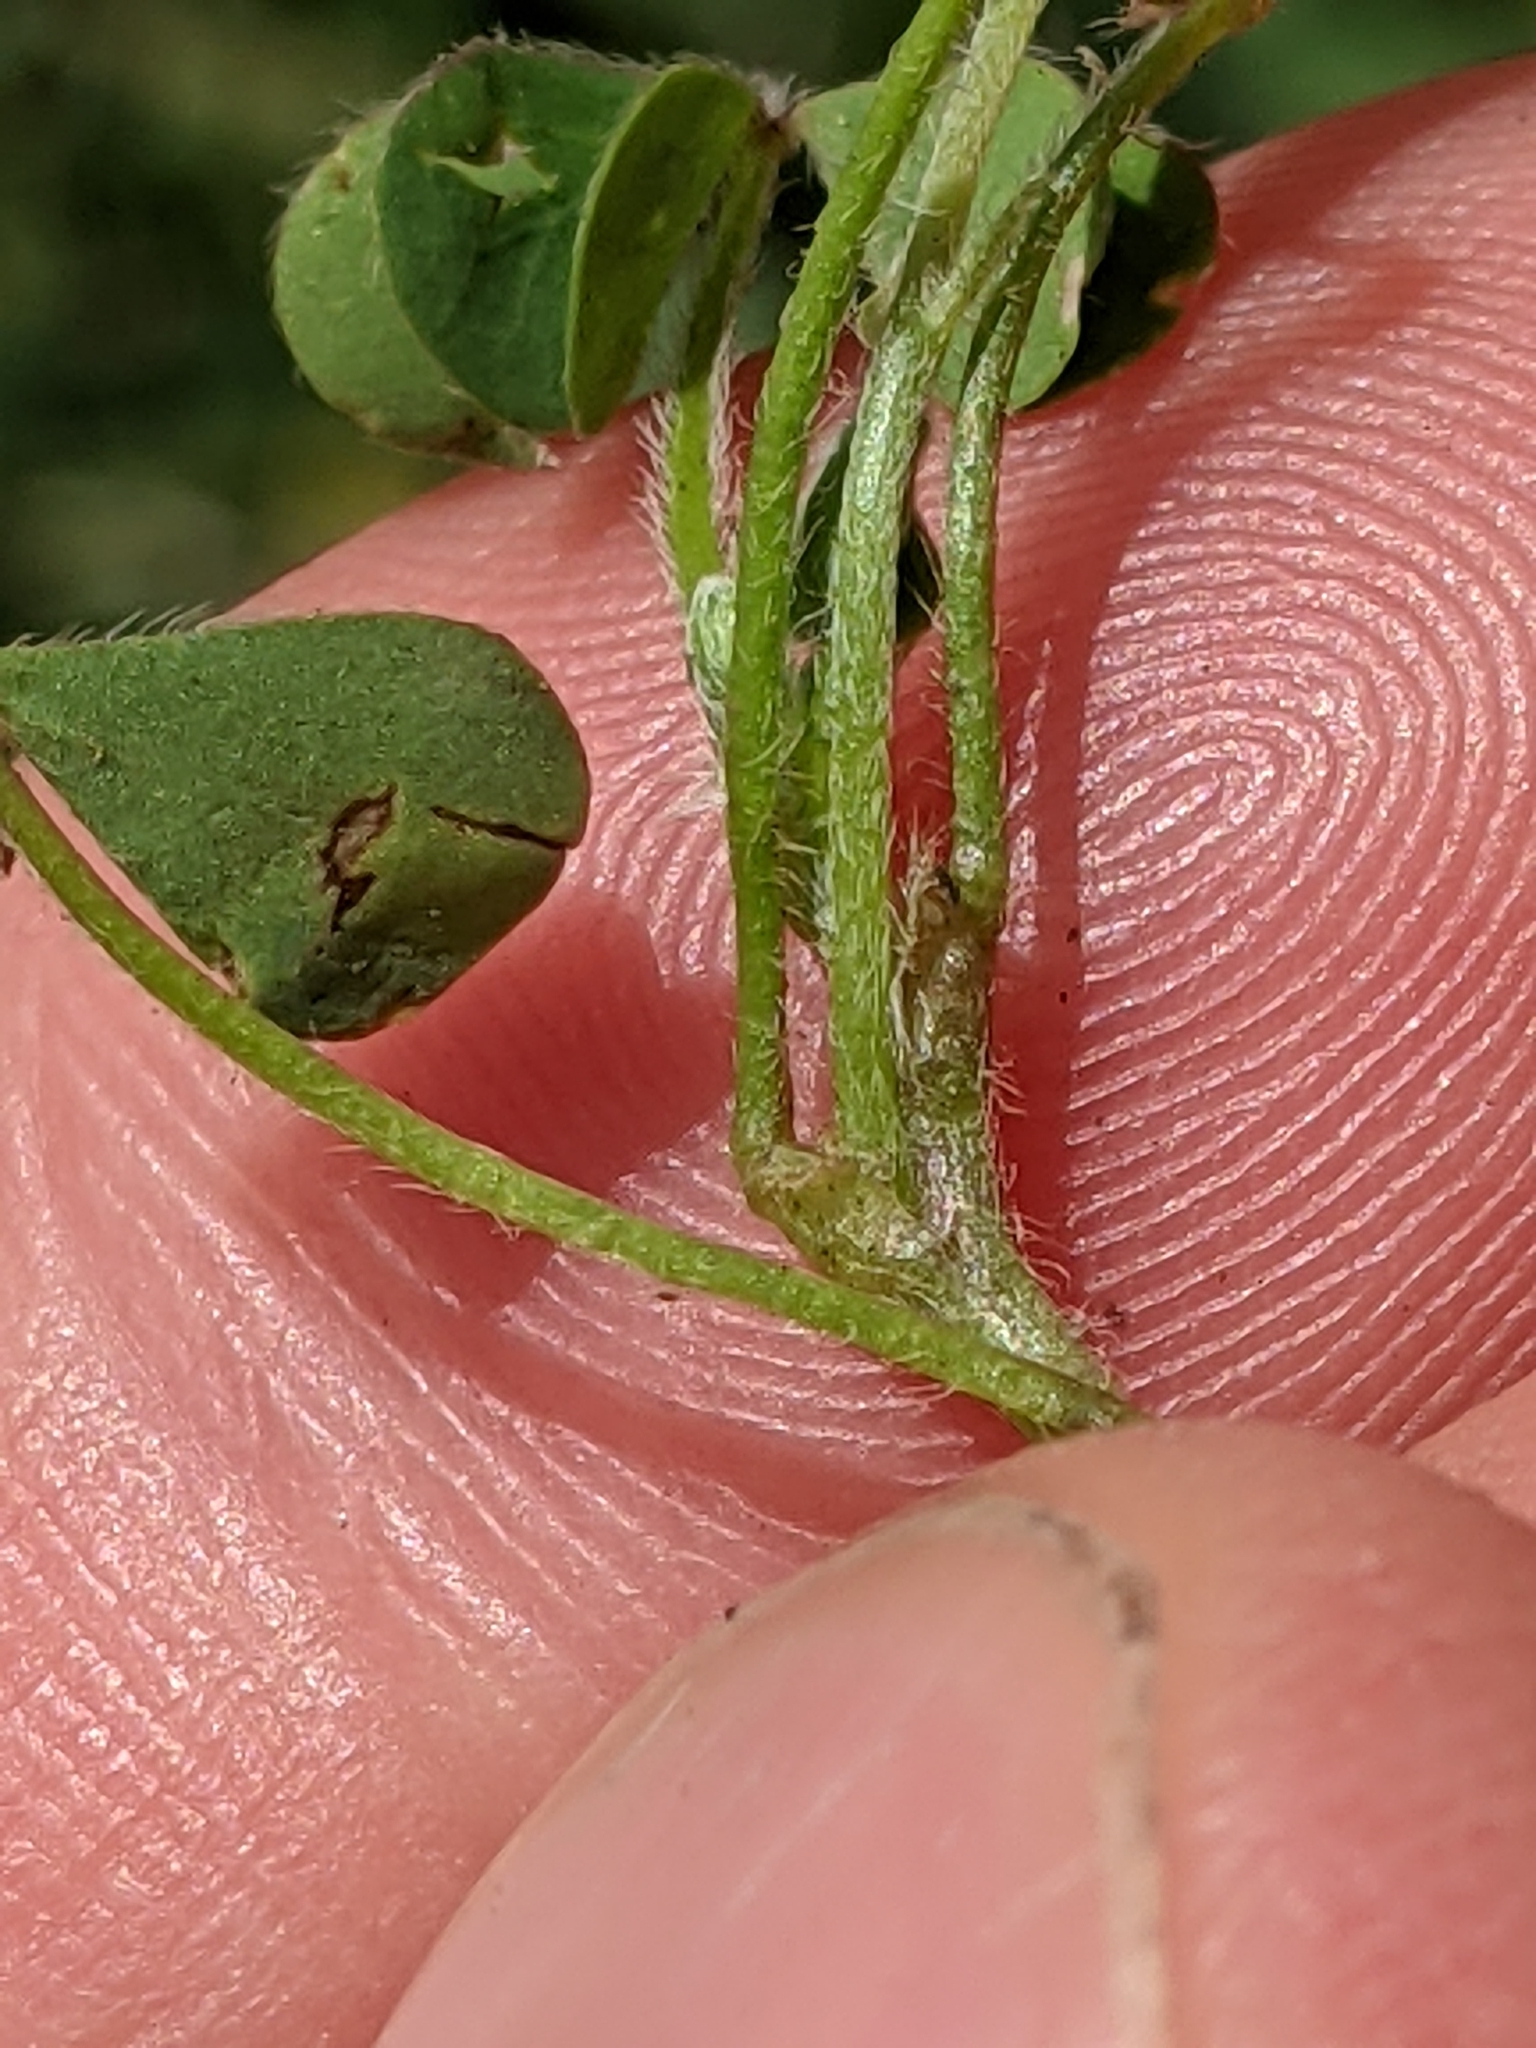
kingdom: Plantae
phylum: Tracheophyta
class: Magnoliopsida
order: Oxalidales
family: Oxalidaceae
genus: Oxalis
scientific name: Oxalis corniculata
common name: Procumbent yellow-sorrel
